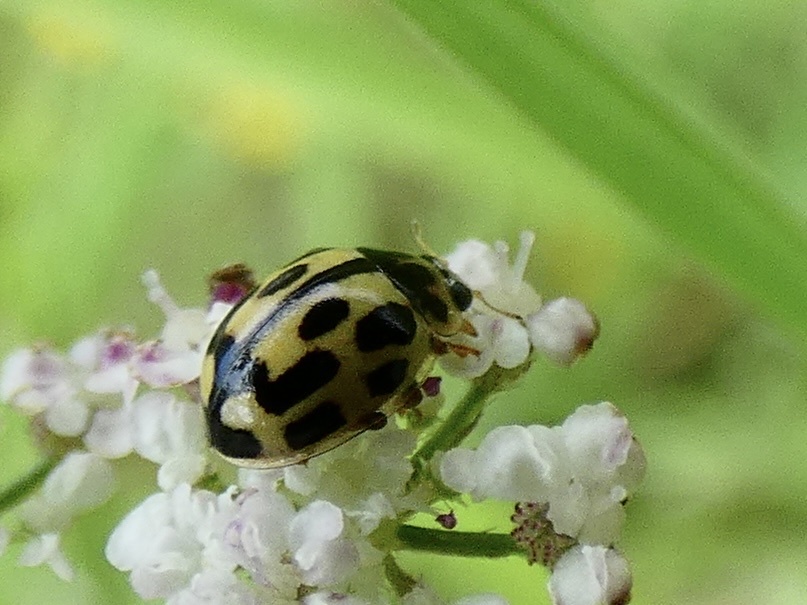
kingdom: Animalia
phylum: Arthropoda
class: Insecta
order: Coleoptera
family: Coccinellidae
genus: Propylaea
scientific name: Propylaea quatuordecimpunctata
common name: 14-spotted ladybird beetle
